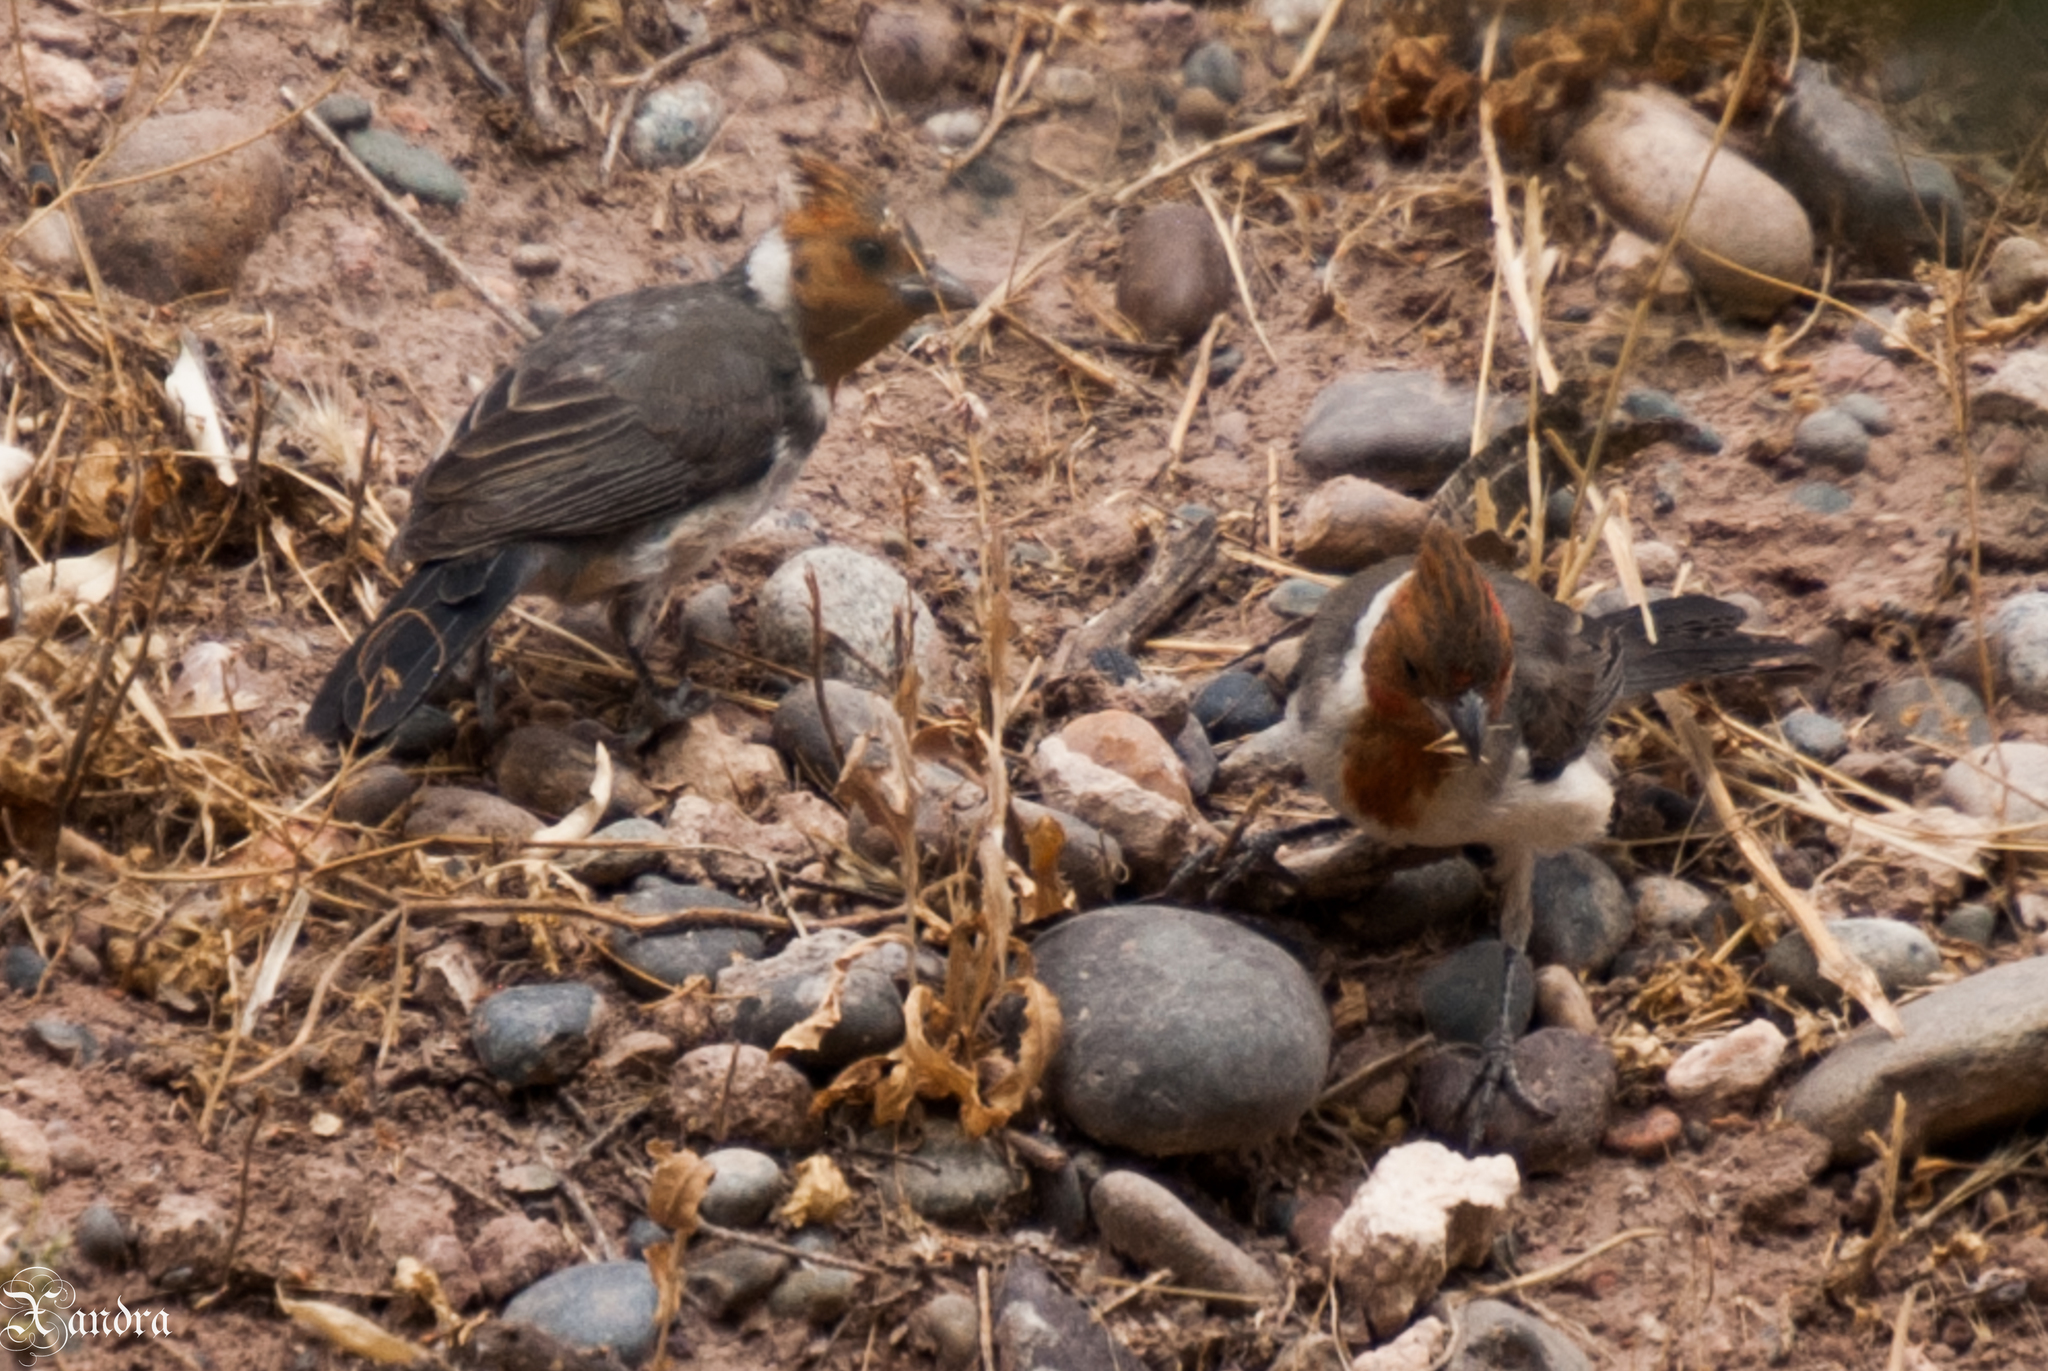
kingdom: Animalia
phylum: Chordata
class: Aves
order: Passeriformes
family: Thraupidae
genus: Paroaria
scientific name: Paroaria coronata
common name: Red-crested cardinal
